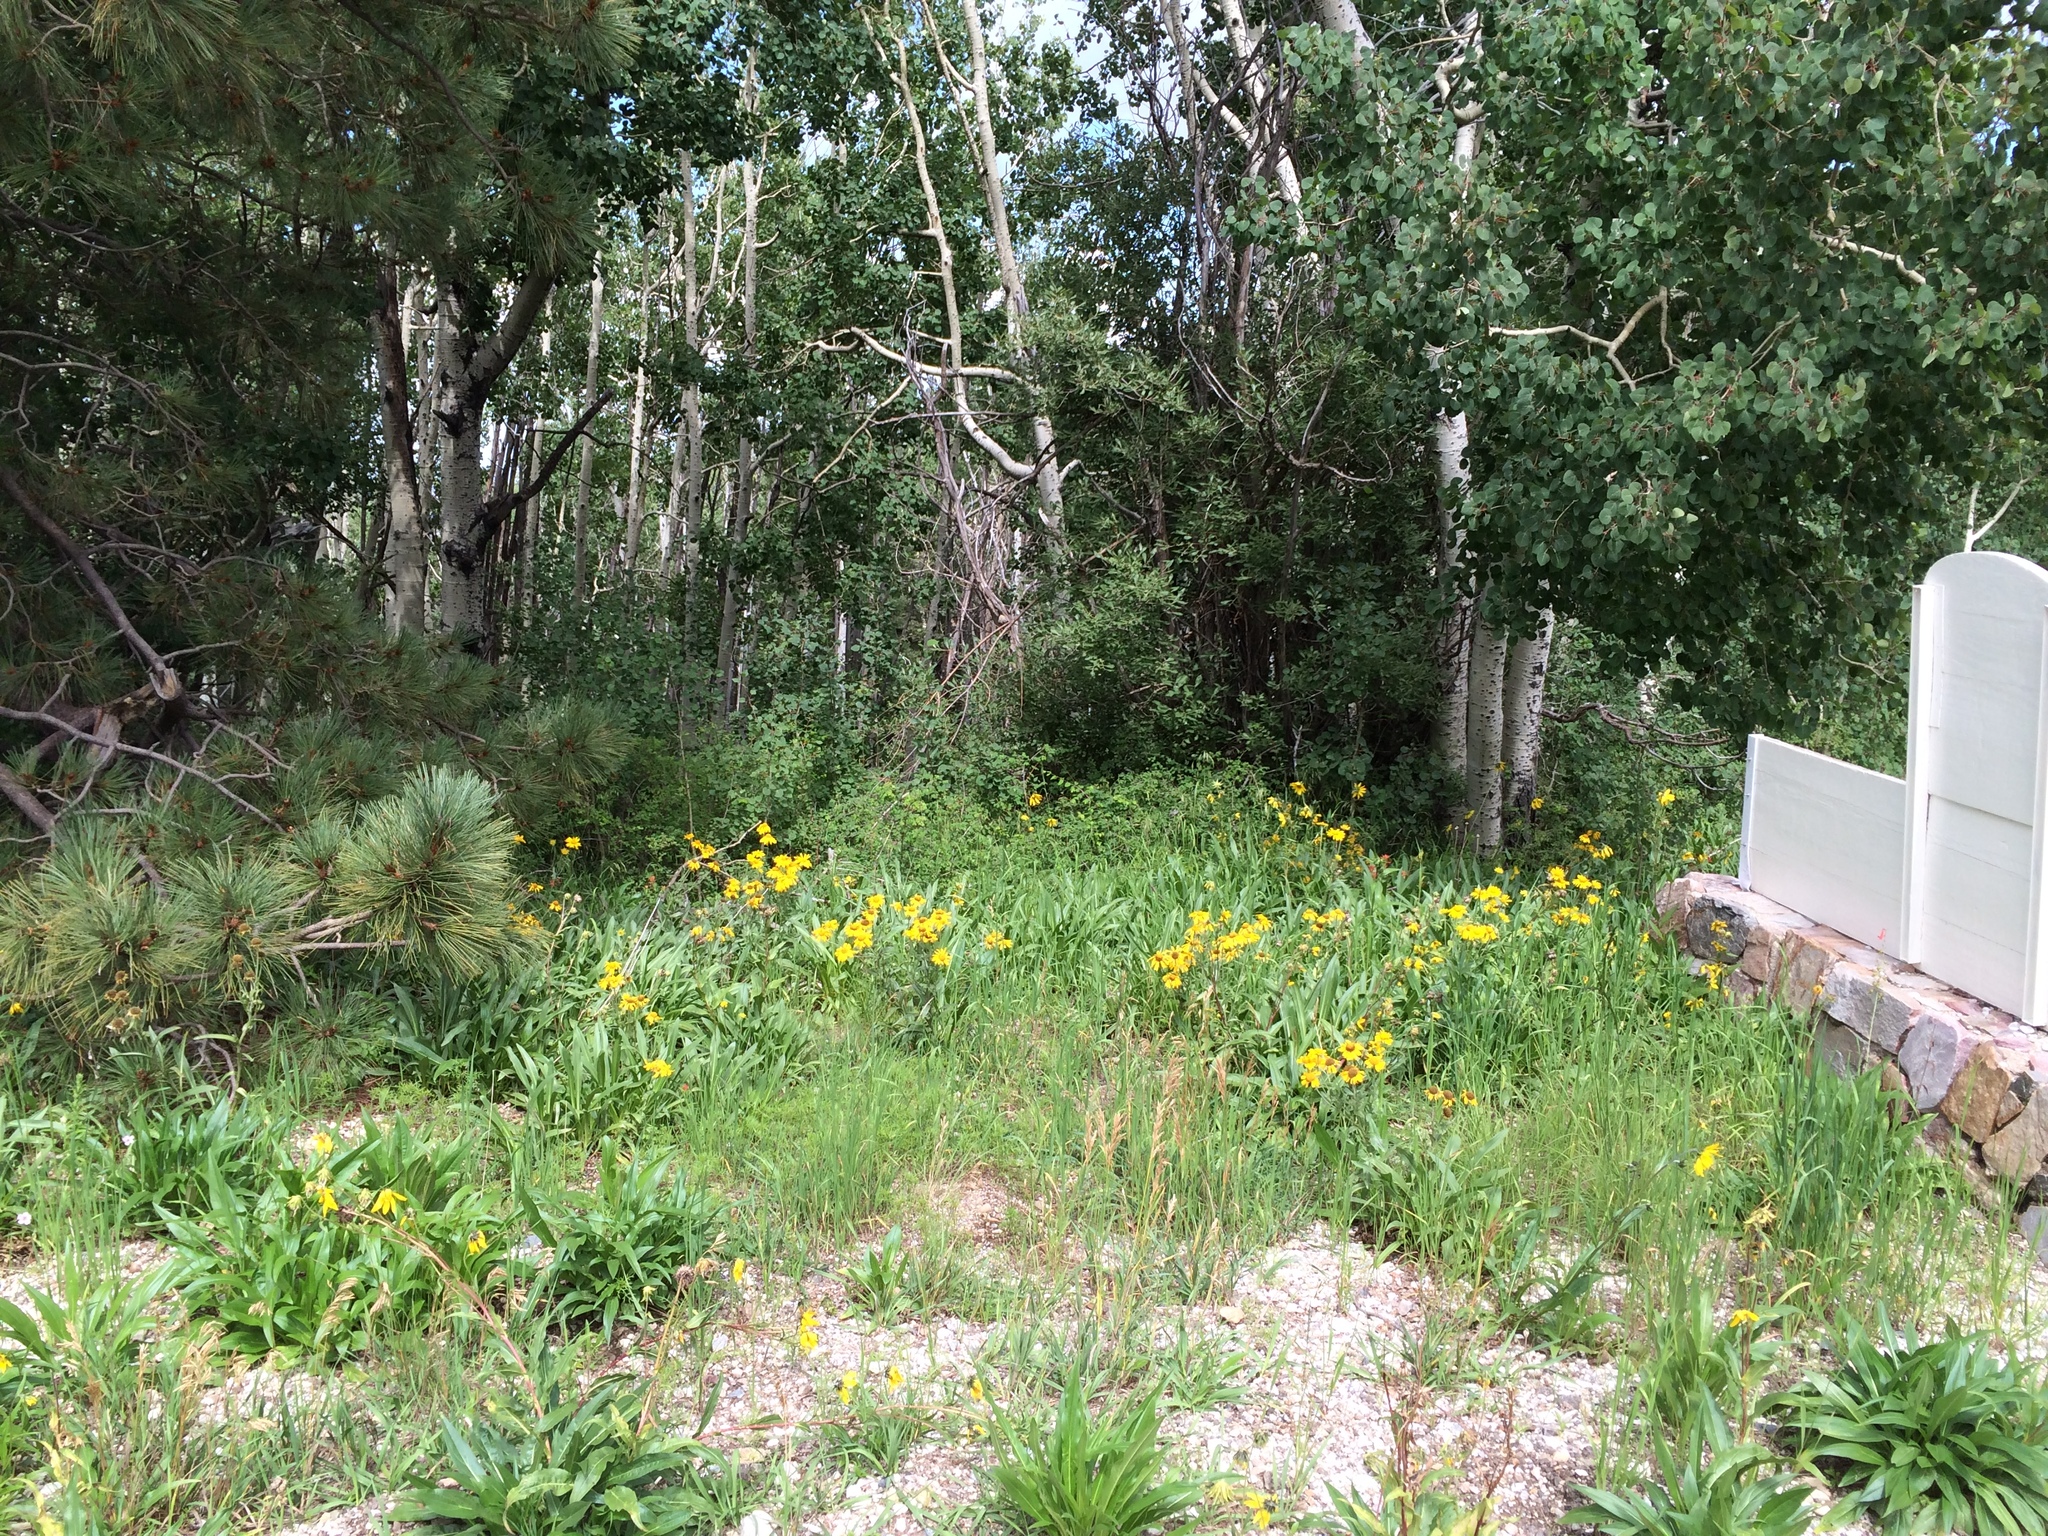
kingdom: Plantae
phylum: Tracheophyta
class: Magnoliopsida
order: Asterales
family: Asteraceae
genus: Hymenoxys
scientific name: Hymenoxys hoopesii
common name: Orange-sneezeweed
